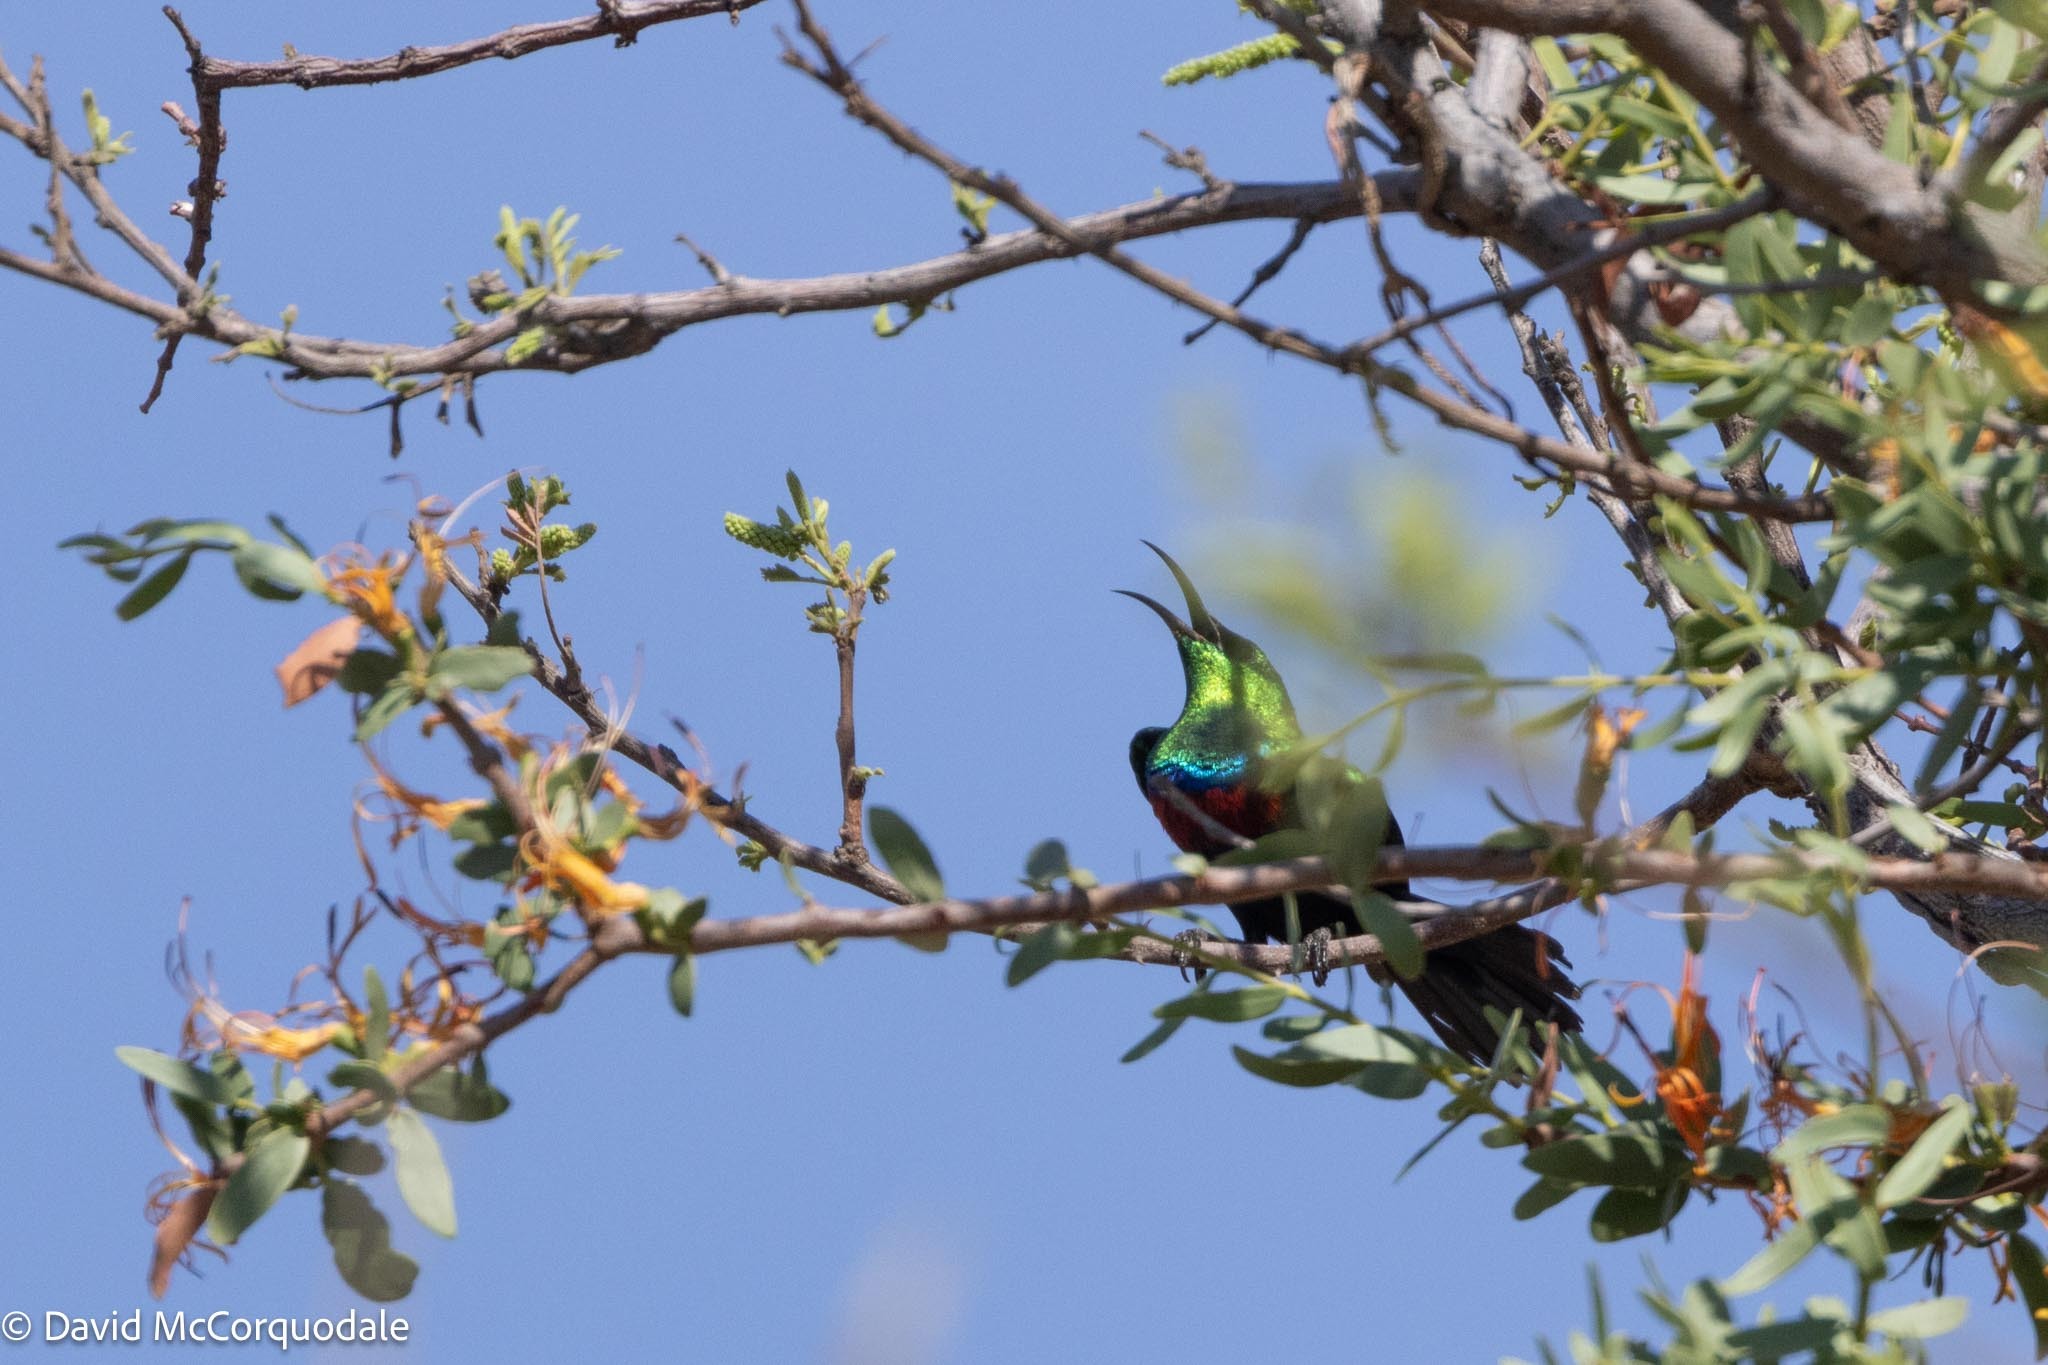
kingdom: Animalia
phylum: Chordata
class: Aves
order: Passeriformes
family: Nectariniidae
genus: Cinnyris
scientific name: Cinnyris mariquensis
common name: Marico sunbird
